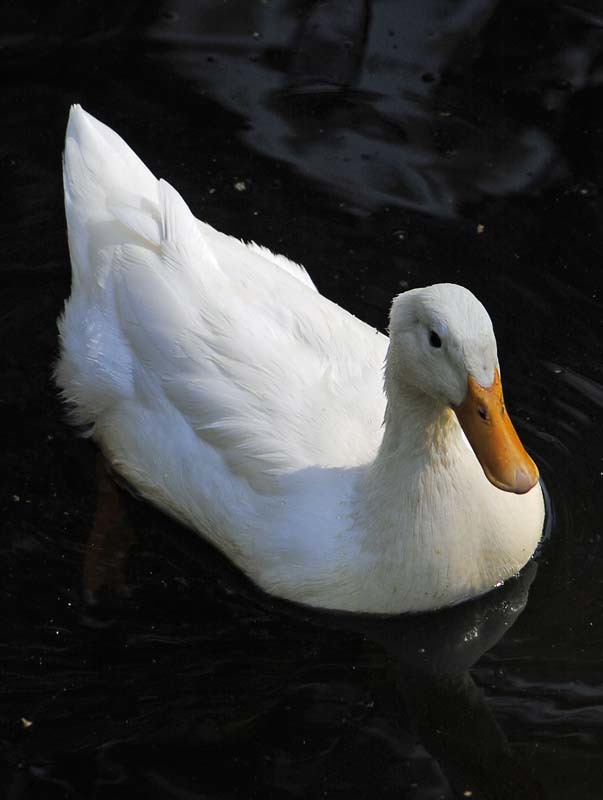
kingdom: Animalia
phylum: Chordata
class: Aves
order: Anseriformes
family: Anatidae
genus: Anas
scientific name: Anas platyrhynchos
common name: Mallard
